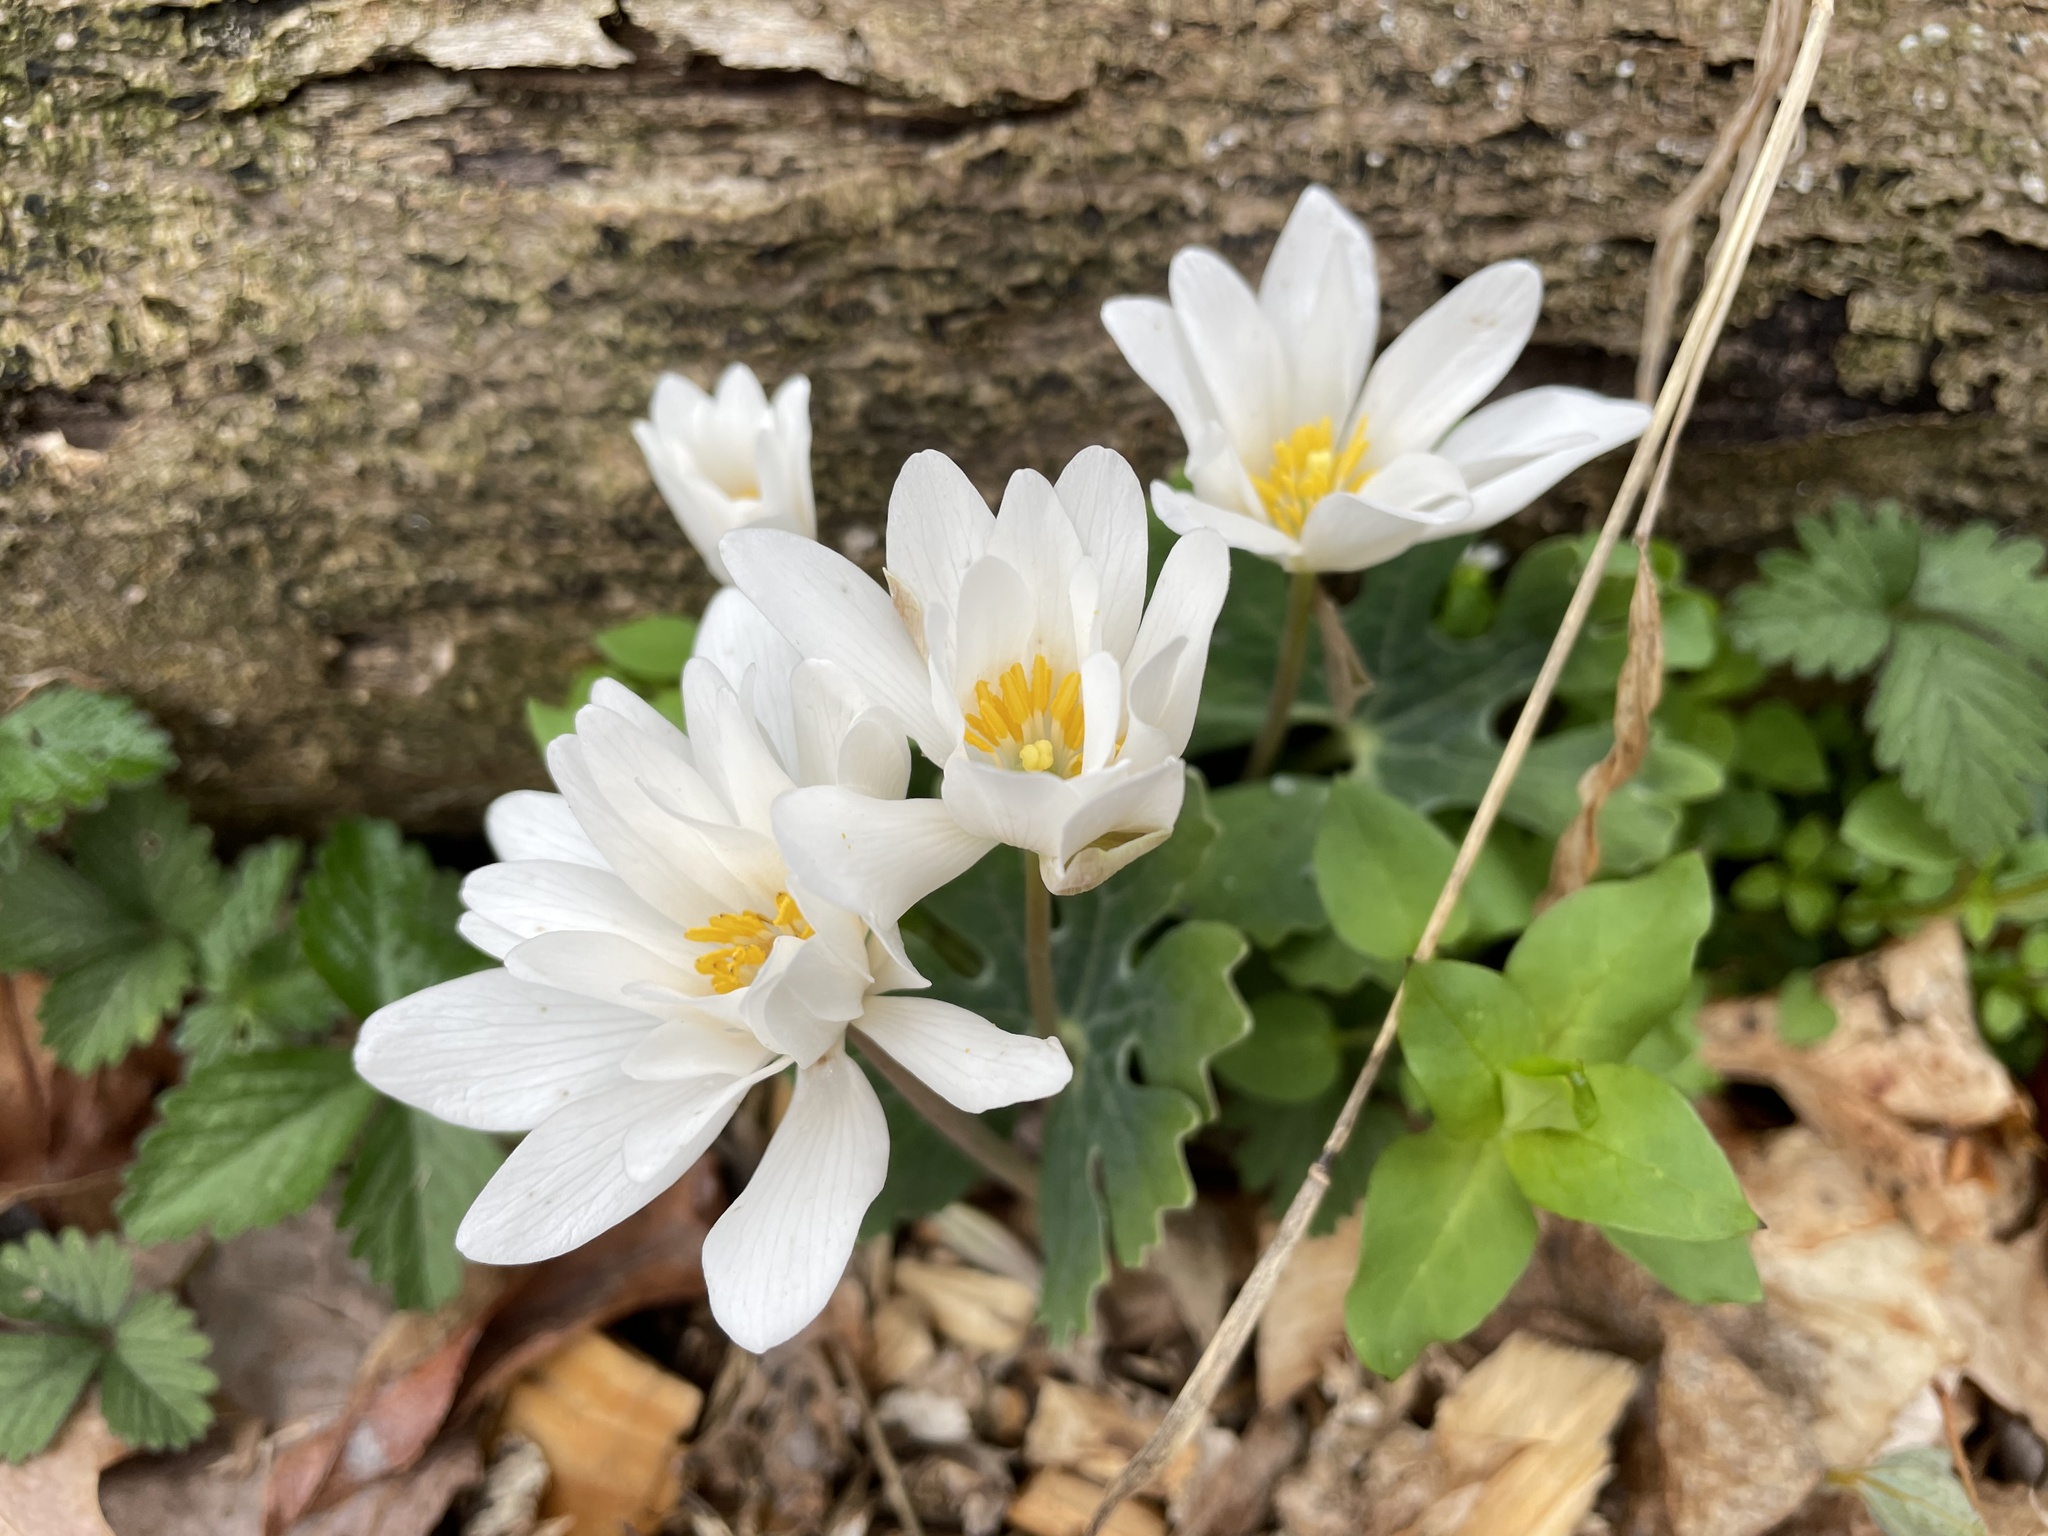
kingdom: Plantae
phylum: Tracheophyta
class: Magnoliopsida
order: Ranunculales
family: Papaveraceae
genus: Sanguinaria
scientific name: Sanguinaria canadensis
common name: Bloodroot
